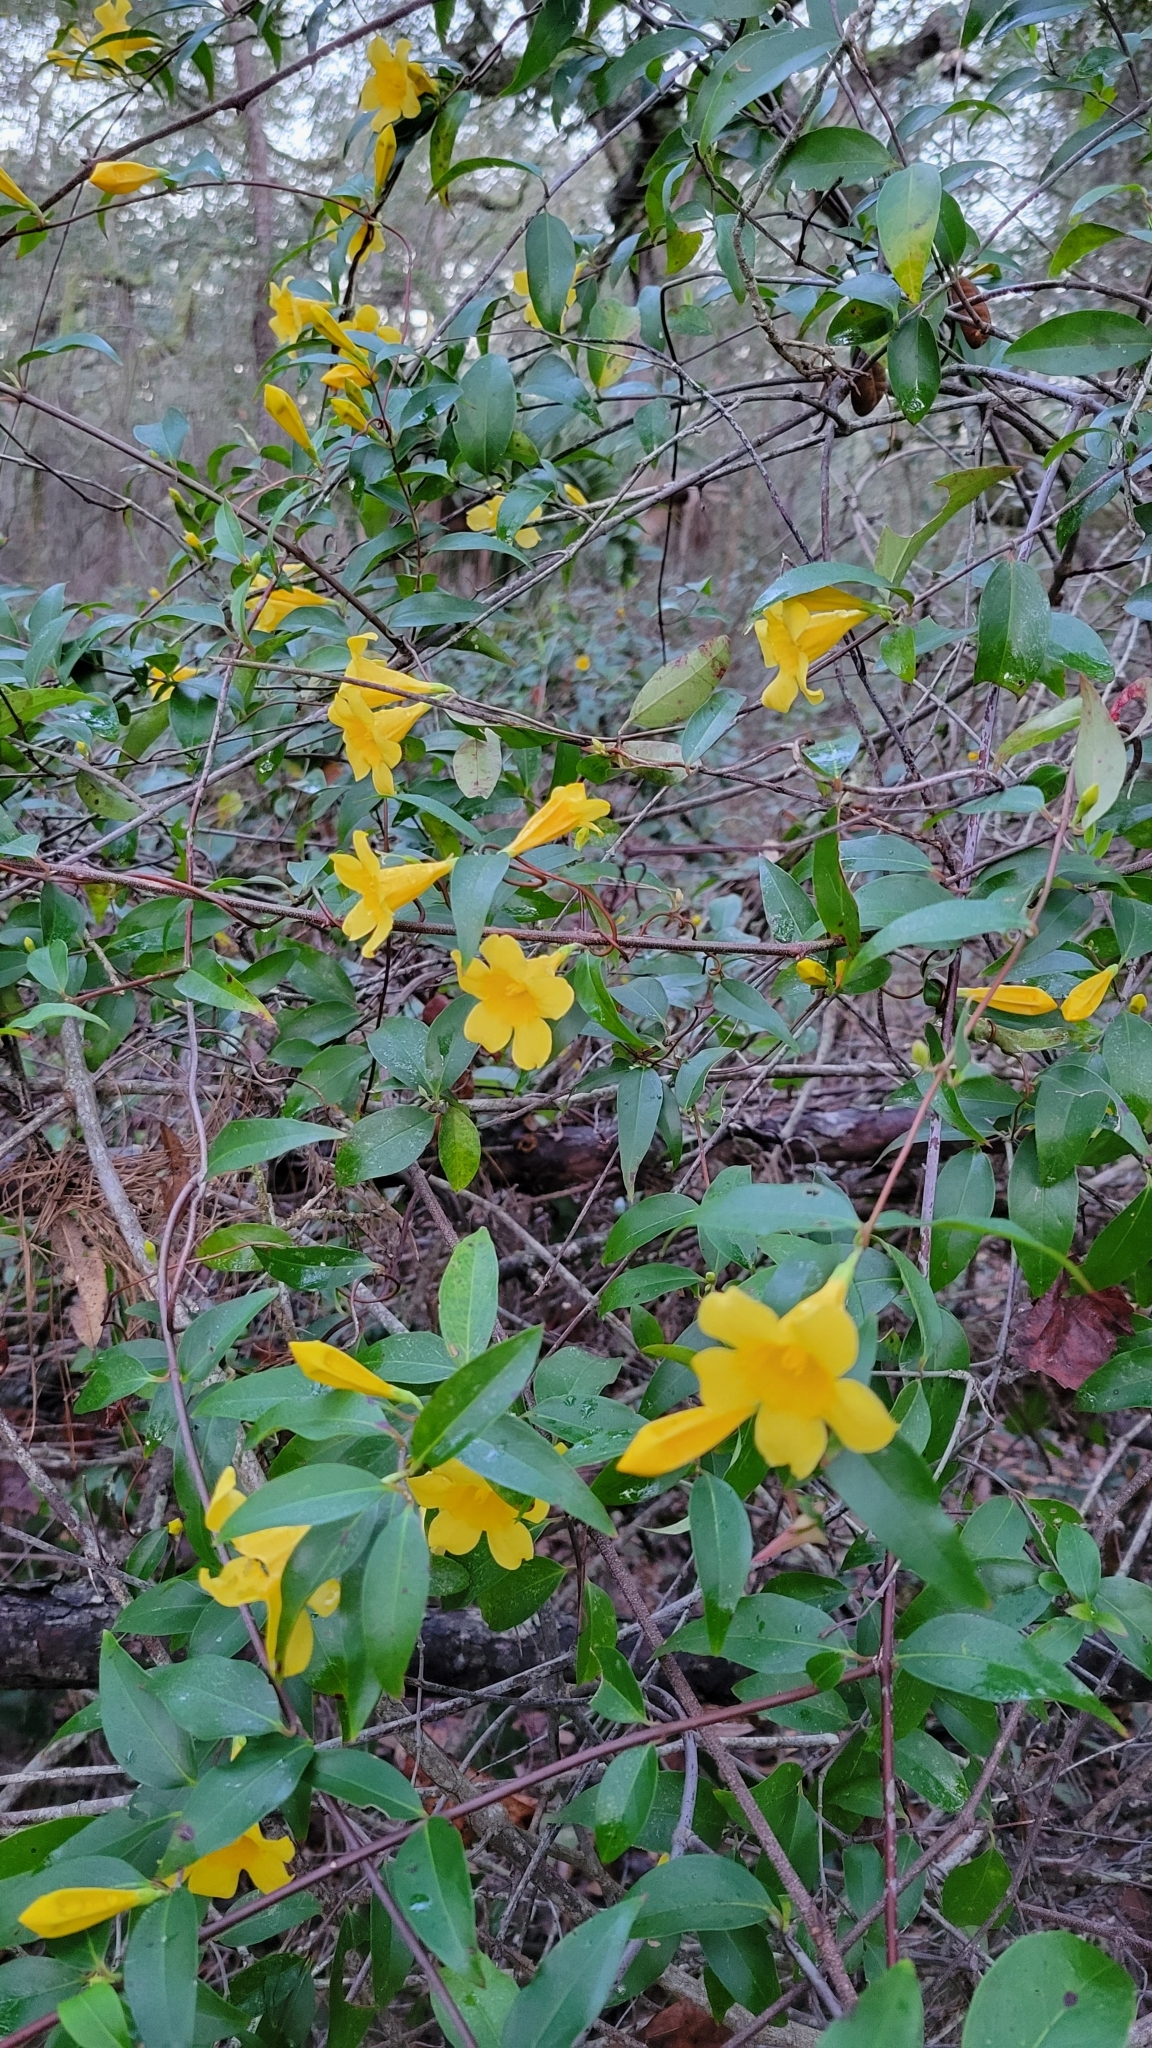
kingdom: Plantae
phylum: Tracheophyta
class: Magnoliopsida
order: Gentianales
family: Gelsemiaceae
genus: Gelsemium
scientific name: Gelsemium sempervirens
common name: Carolina-jasmine
